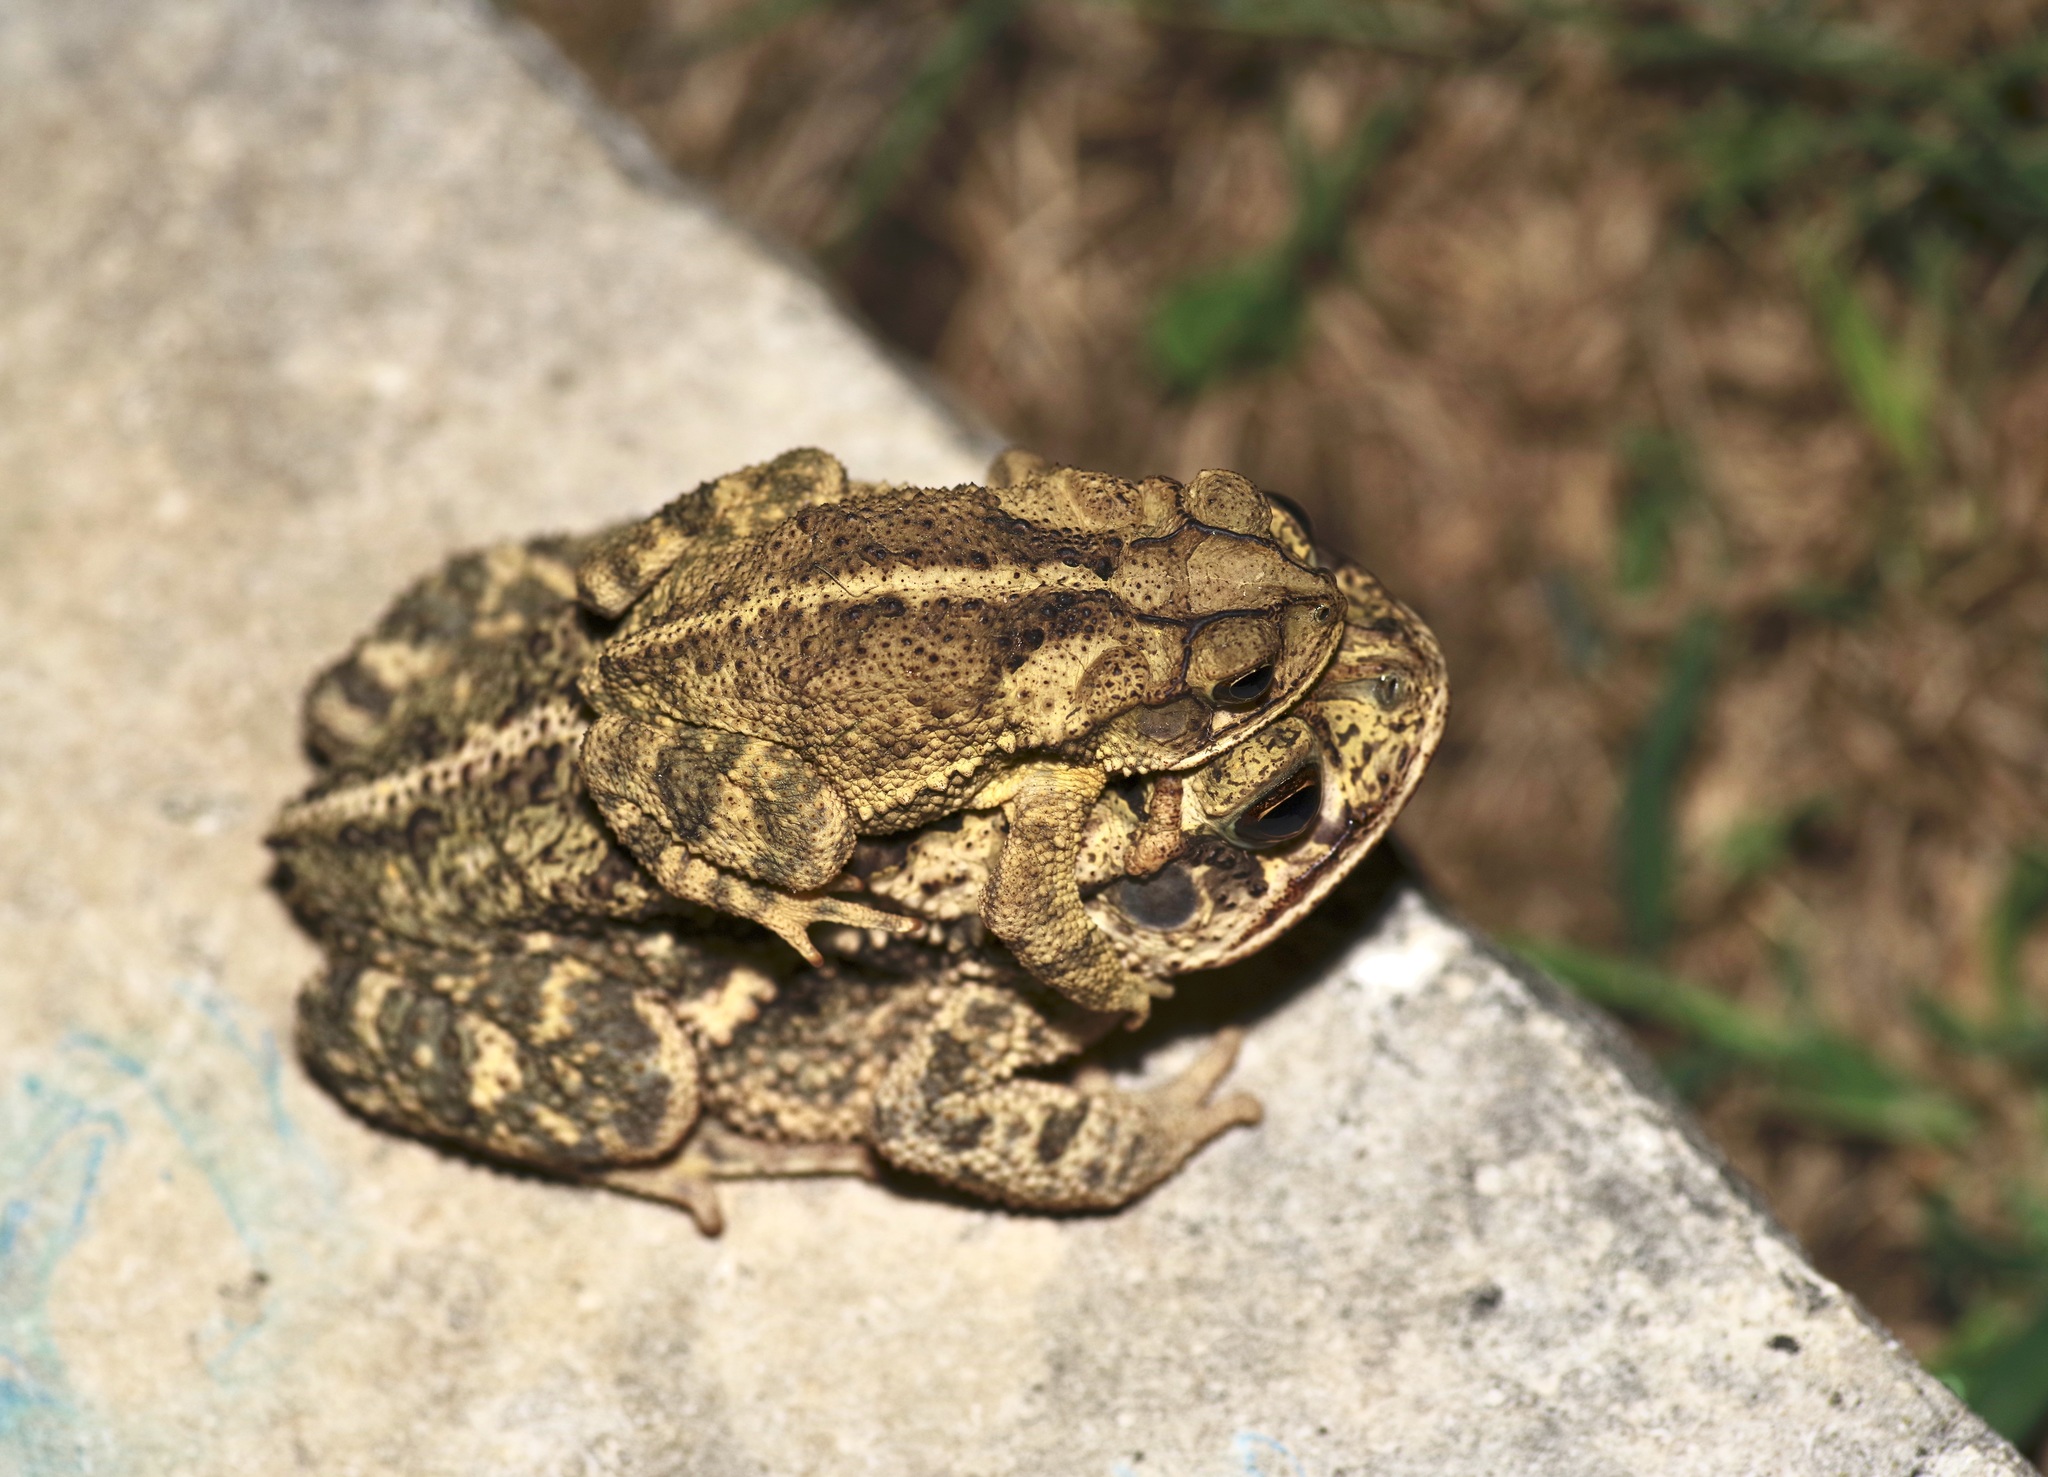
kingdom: Animalia
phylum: Chordata
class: Amphibia
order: Anura
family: Bufonidae
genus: Incilius
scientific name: Incilius nebulifer
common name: Gulf coast toad
